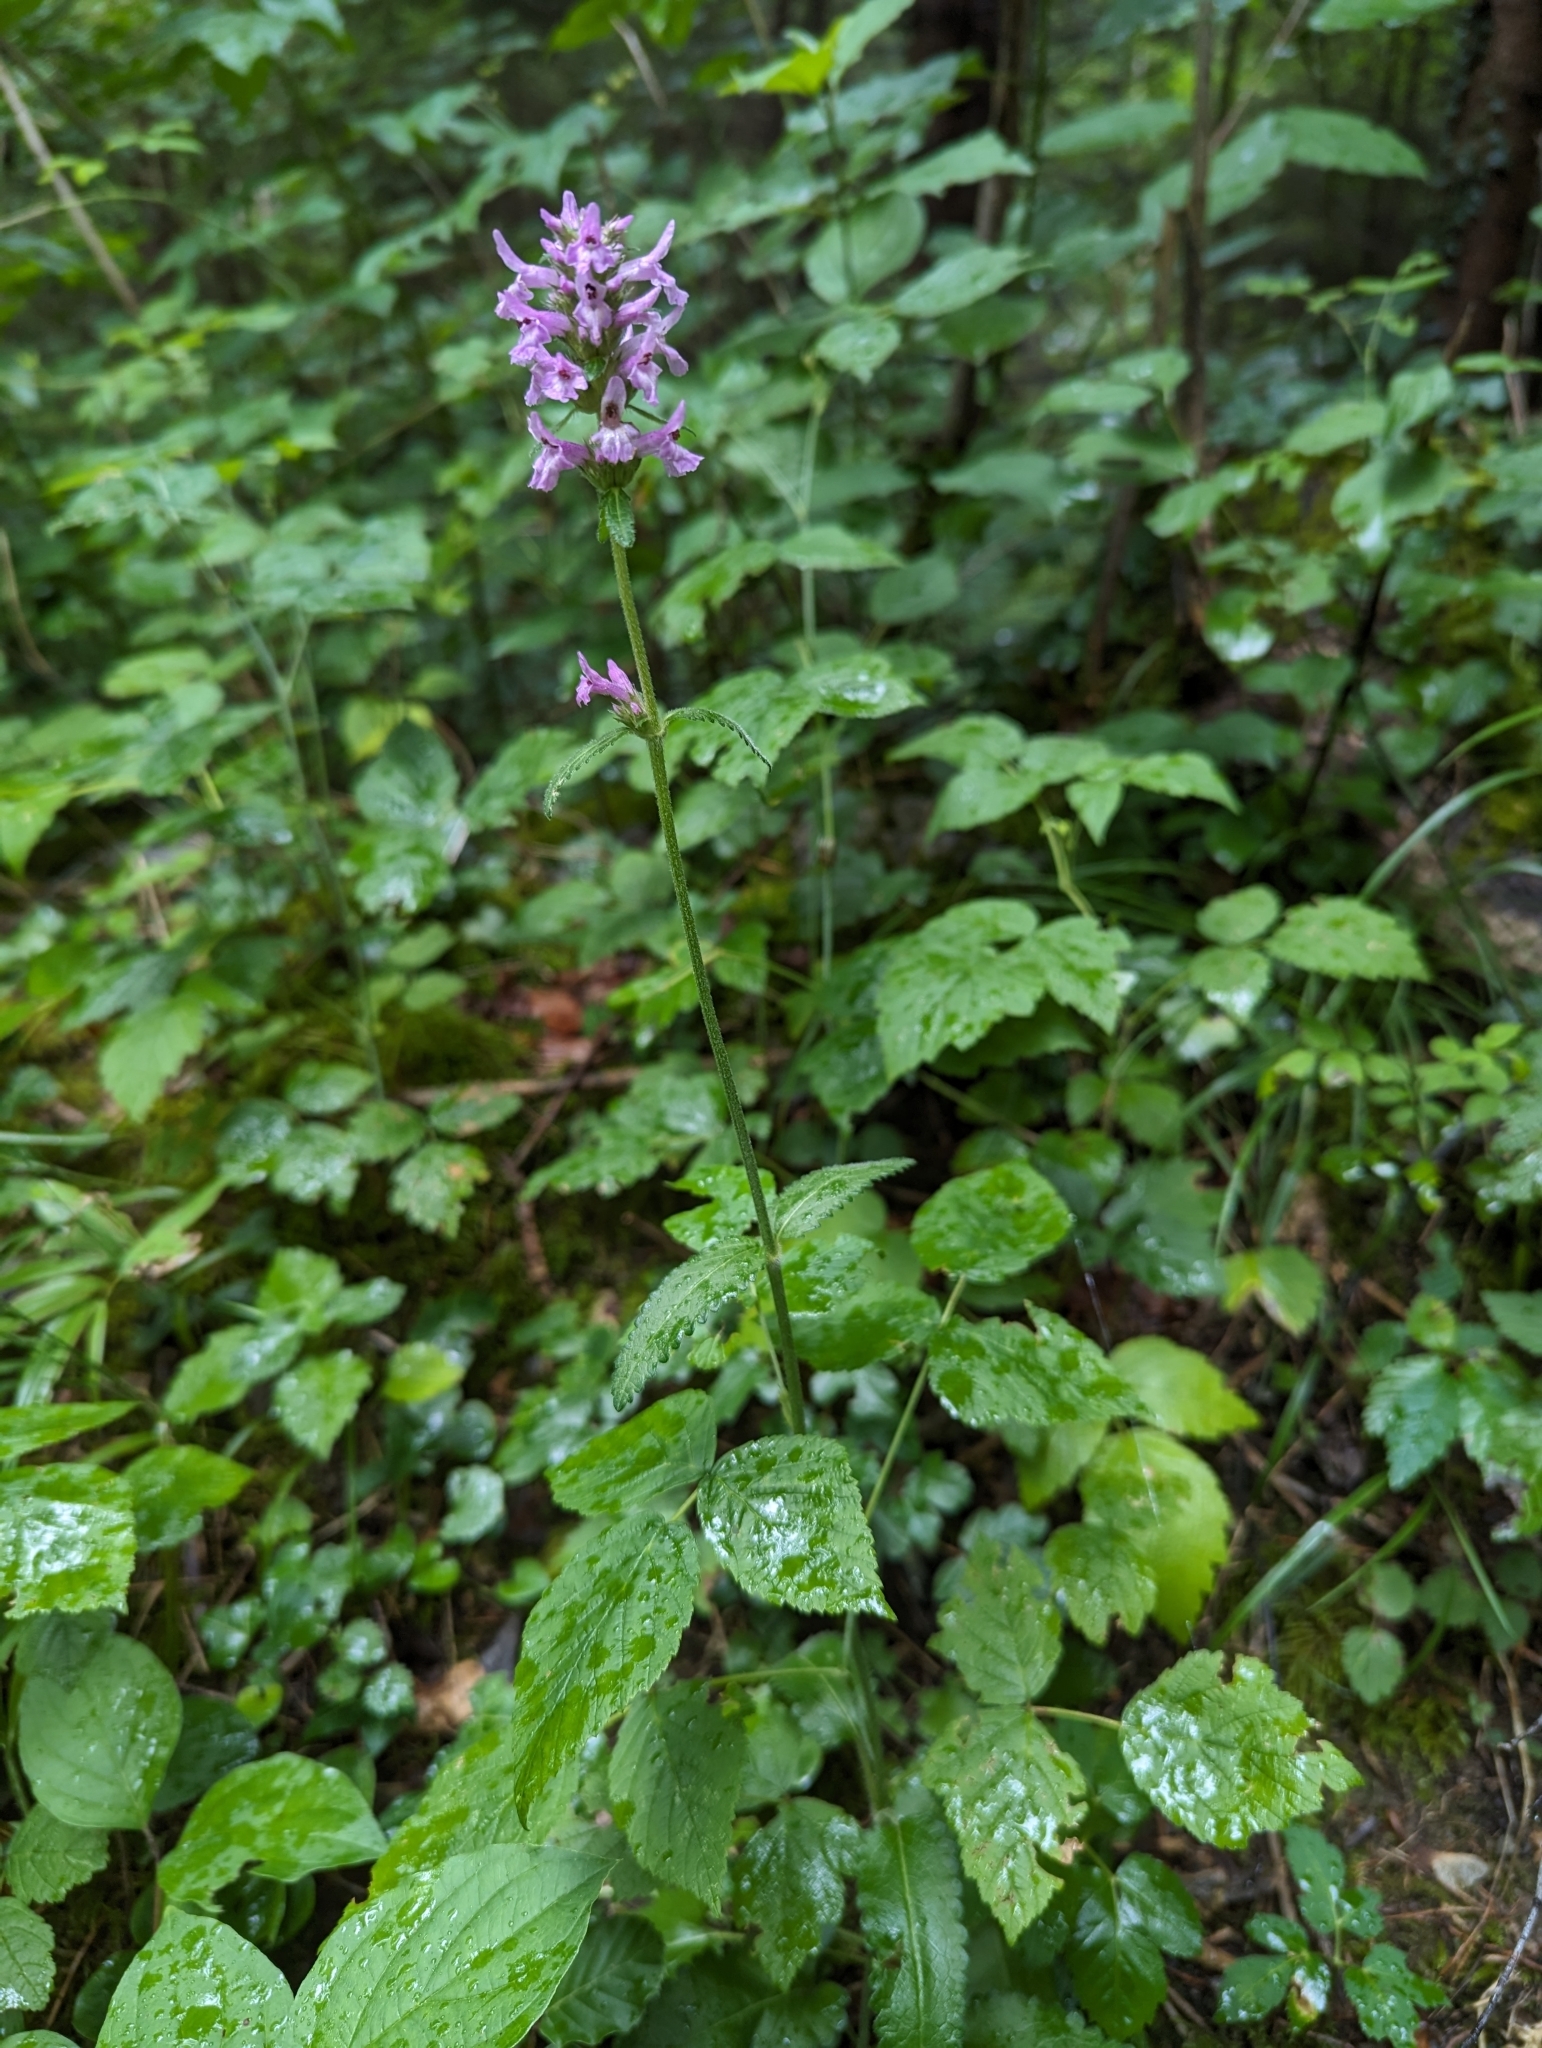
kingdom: Plantae
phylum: Tracheophyta
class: Magnoliopsida
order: Lamiales
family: Lamiaceae
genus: Betonica
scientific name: Betonica officinalis
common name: Bishop's-wort
